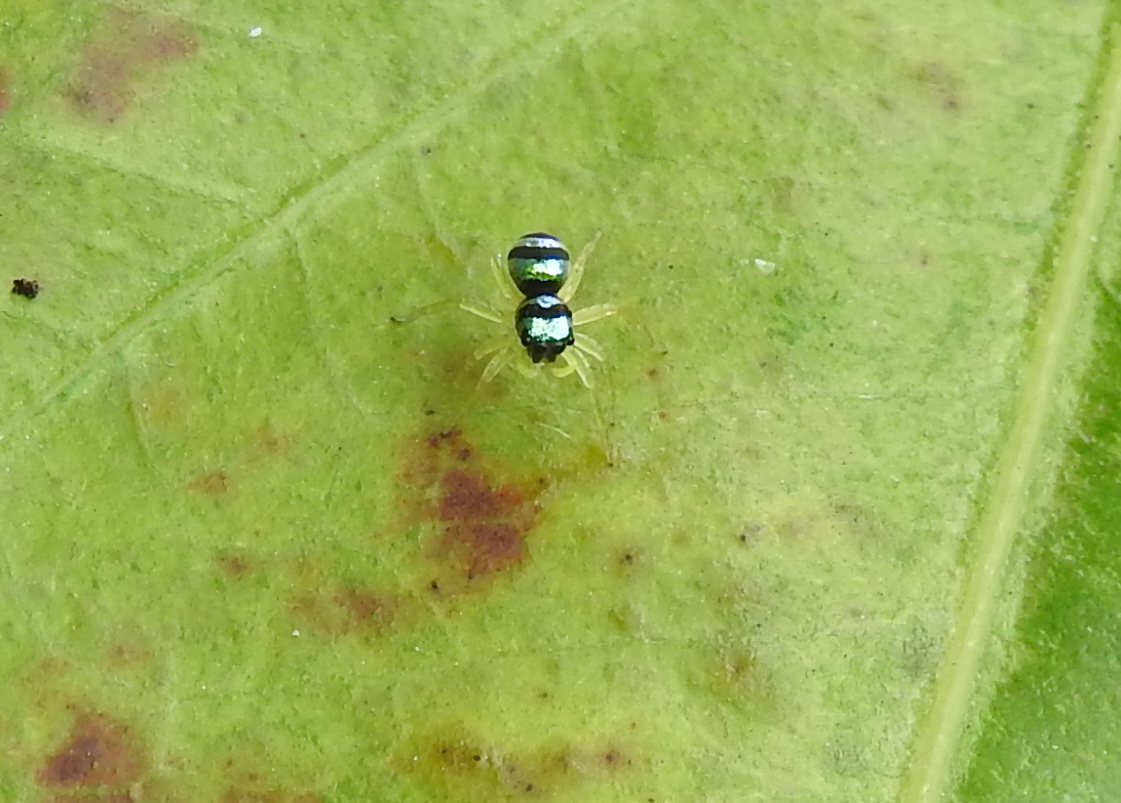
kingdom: Animalia
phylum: Arthropoda
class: Arachnida
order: Araneae
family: Salticidae
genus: Phintella
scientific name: Phintella vittata
